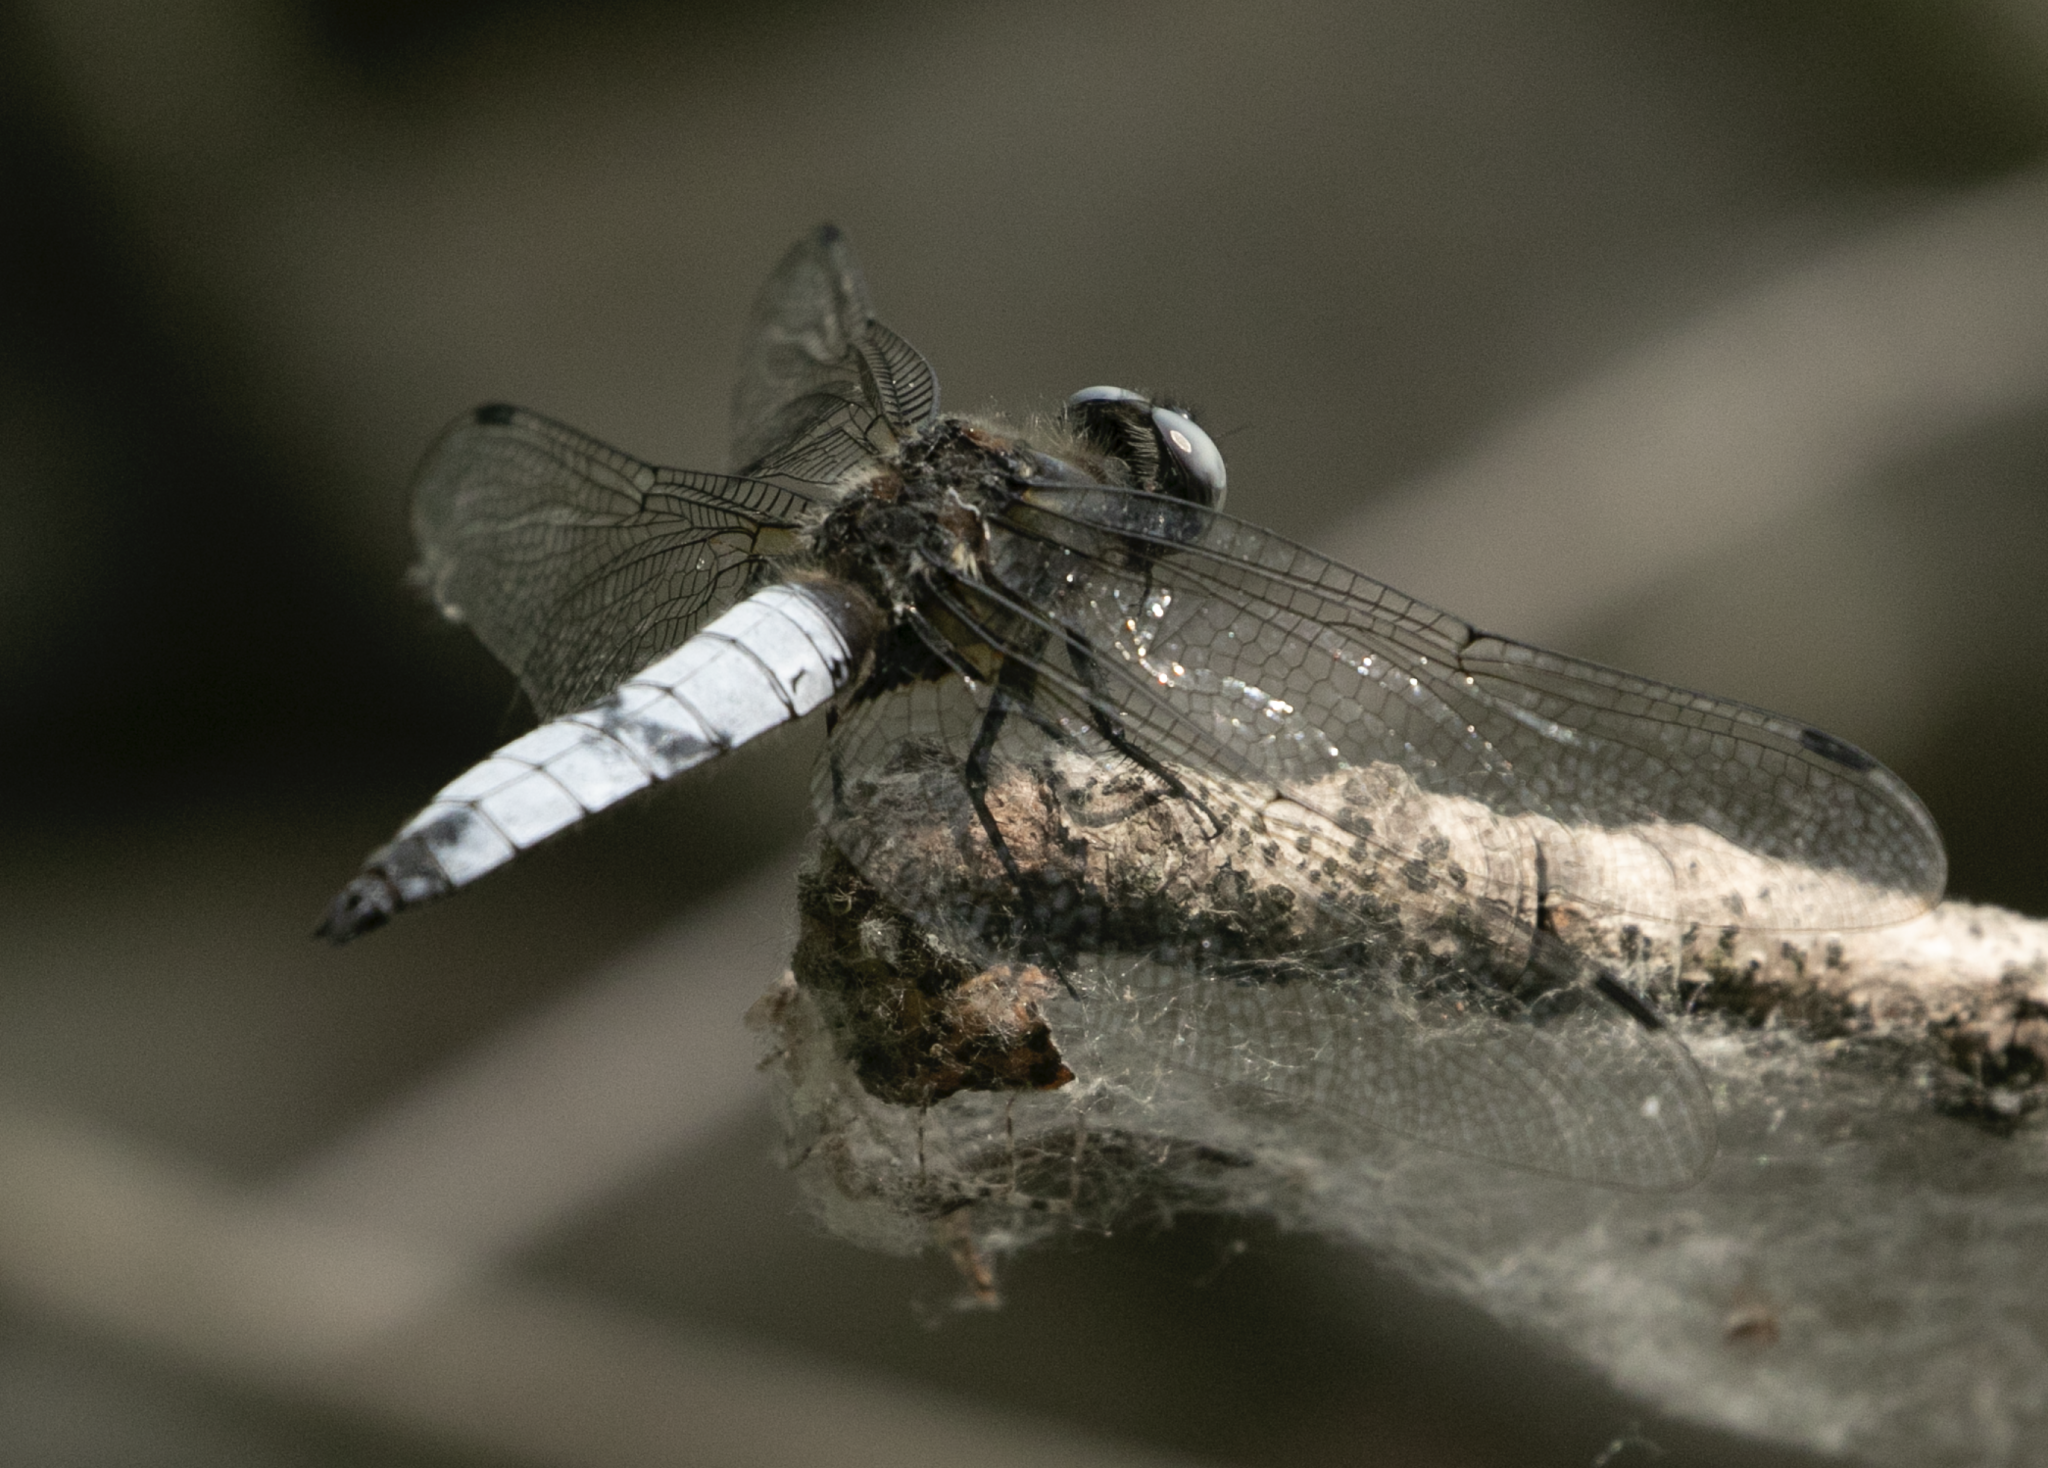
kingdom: Animalia
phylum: Arthropoda
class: Insecta
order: Odonata
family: Libellulidae
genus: Libellula
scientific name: Libellula fulva
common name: Blue chaser
